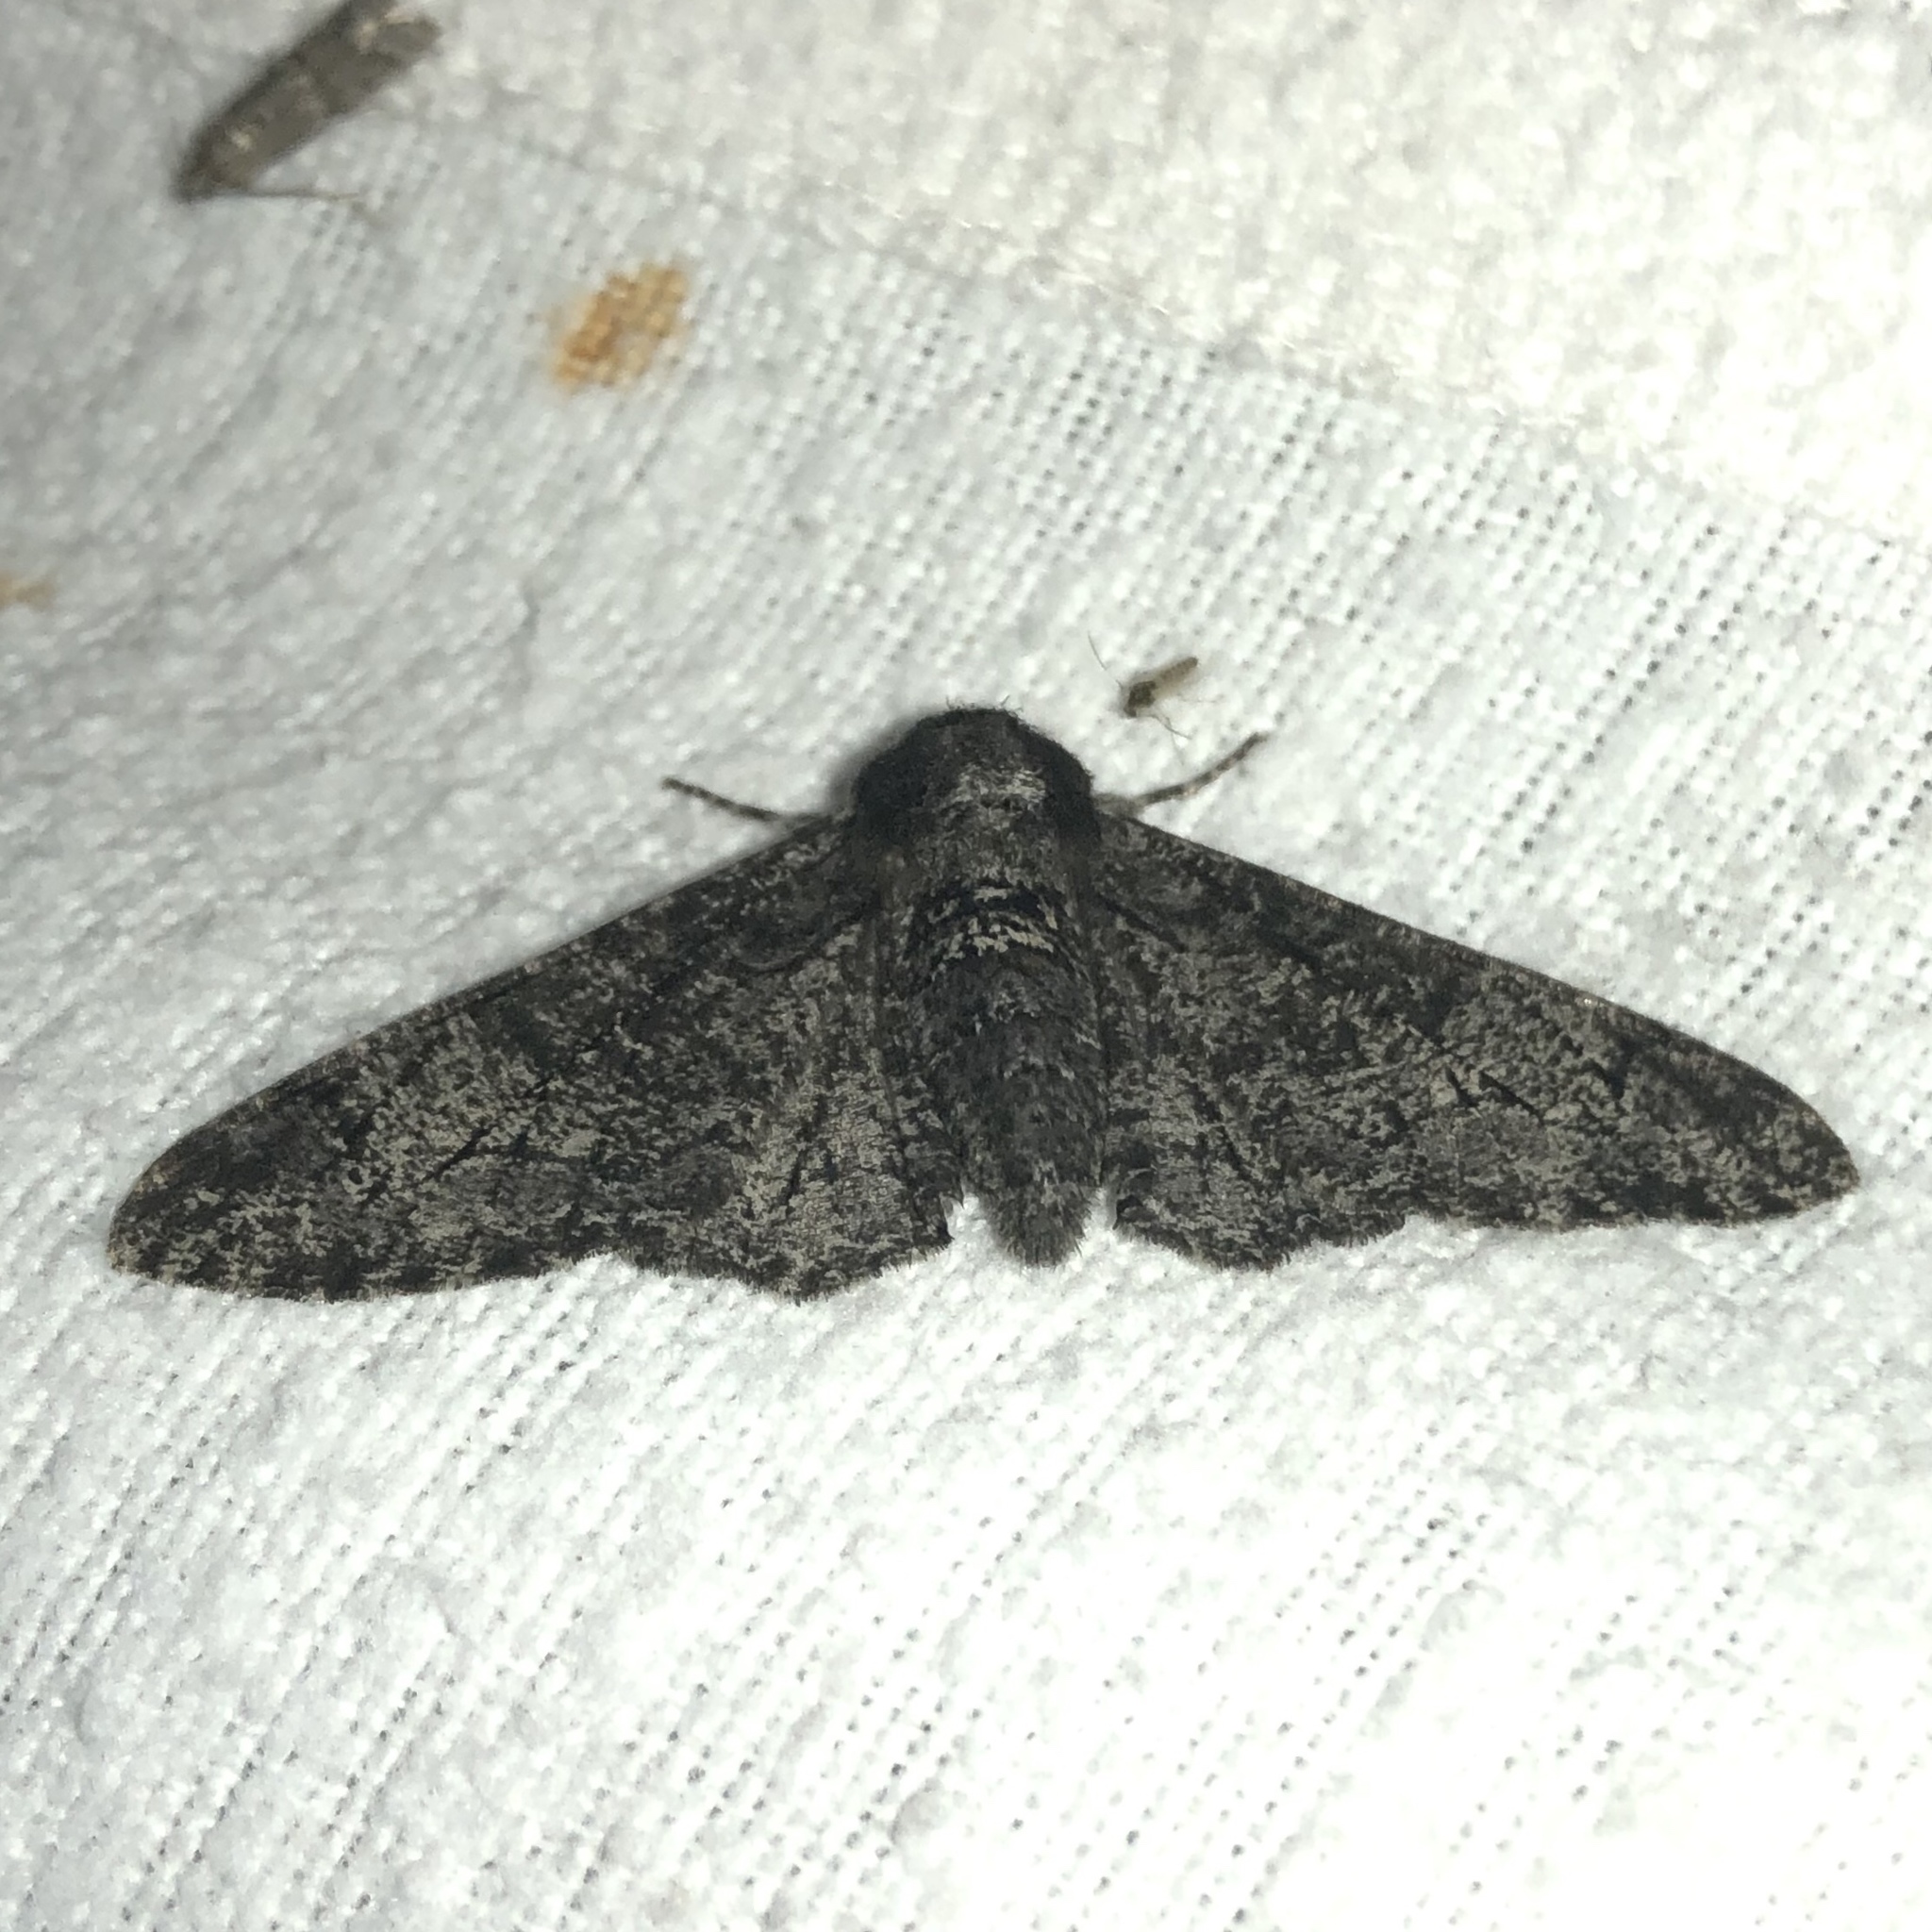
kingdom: Animalia
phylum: Arthropoda
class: Insecta
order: Lepidoptera
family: Geometridae
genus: Biston
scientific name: Biston betularia
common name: Peppered moth
